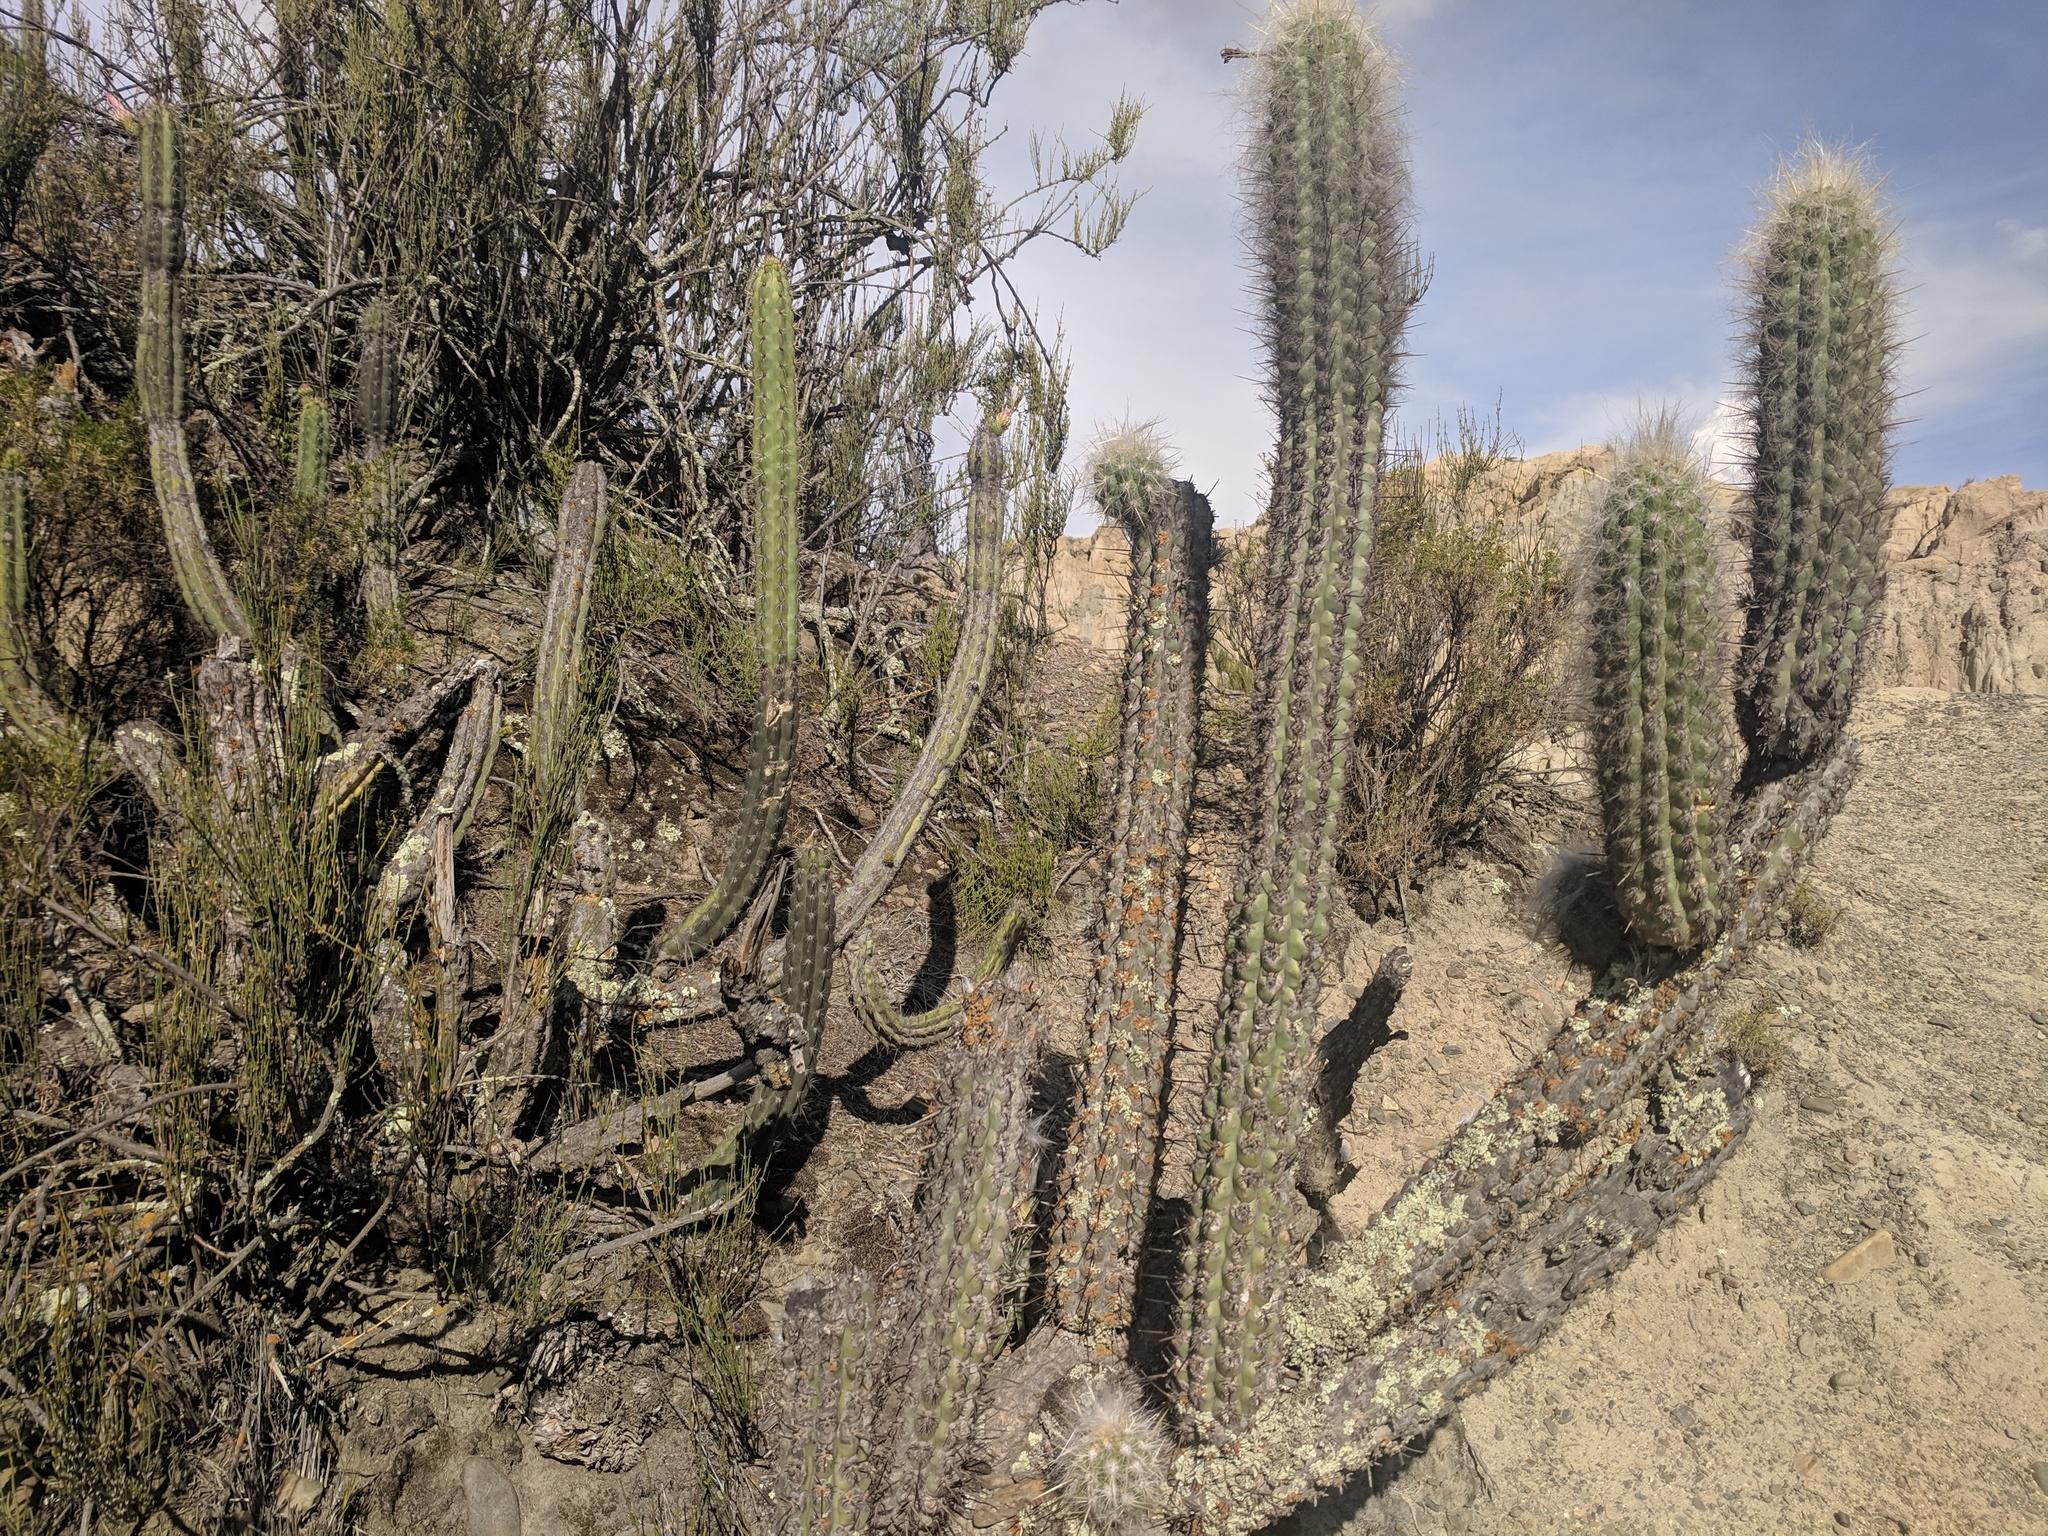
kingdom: Plantae
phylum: Tracheophyta
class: Magnoliopsida
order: Caryophyllales
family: Cactaceae
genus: Oreocereus
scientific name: Oreocereus pseudofossulatus
